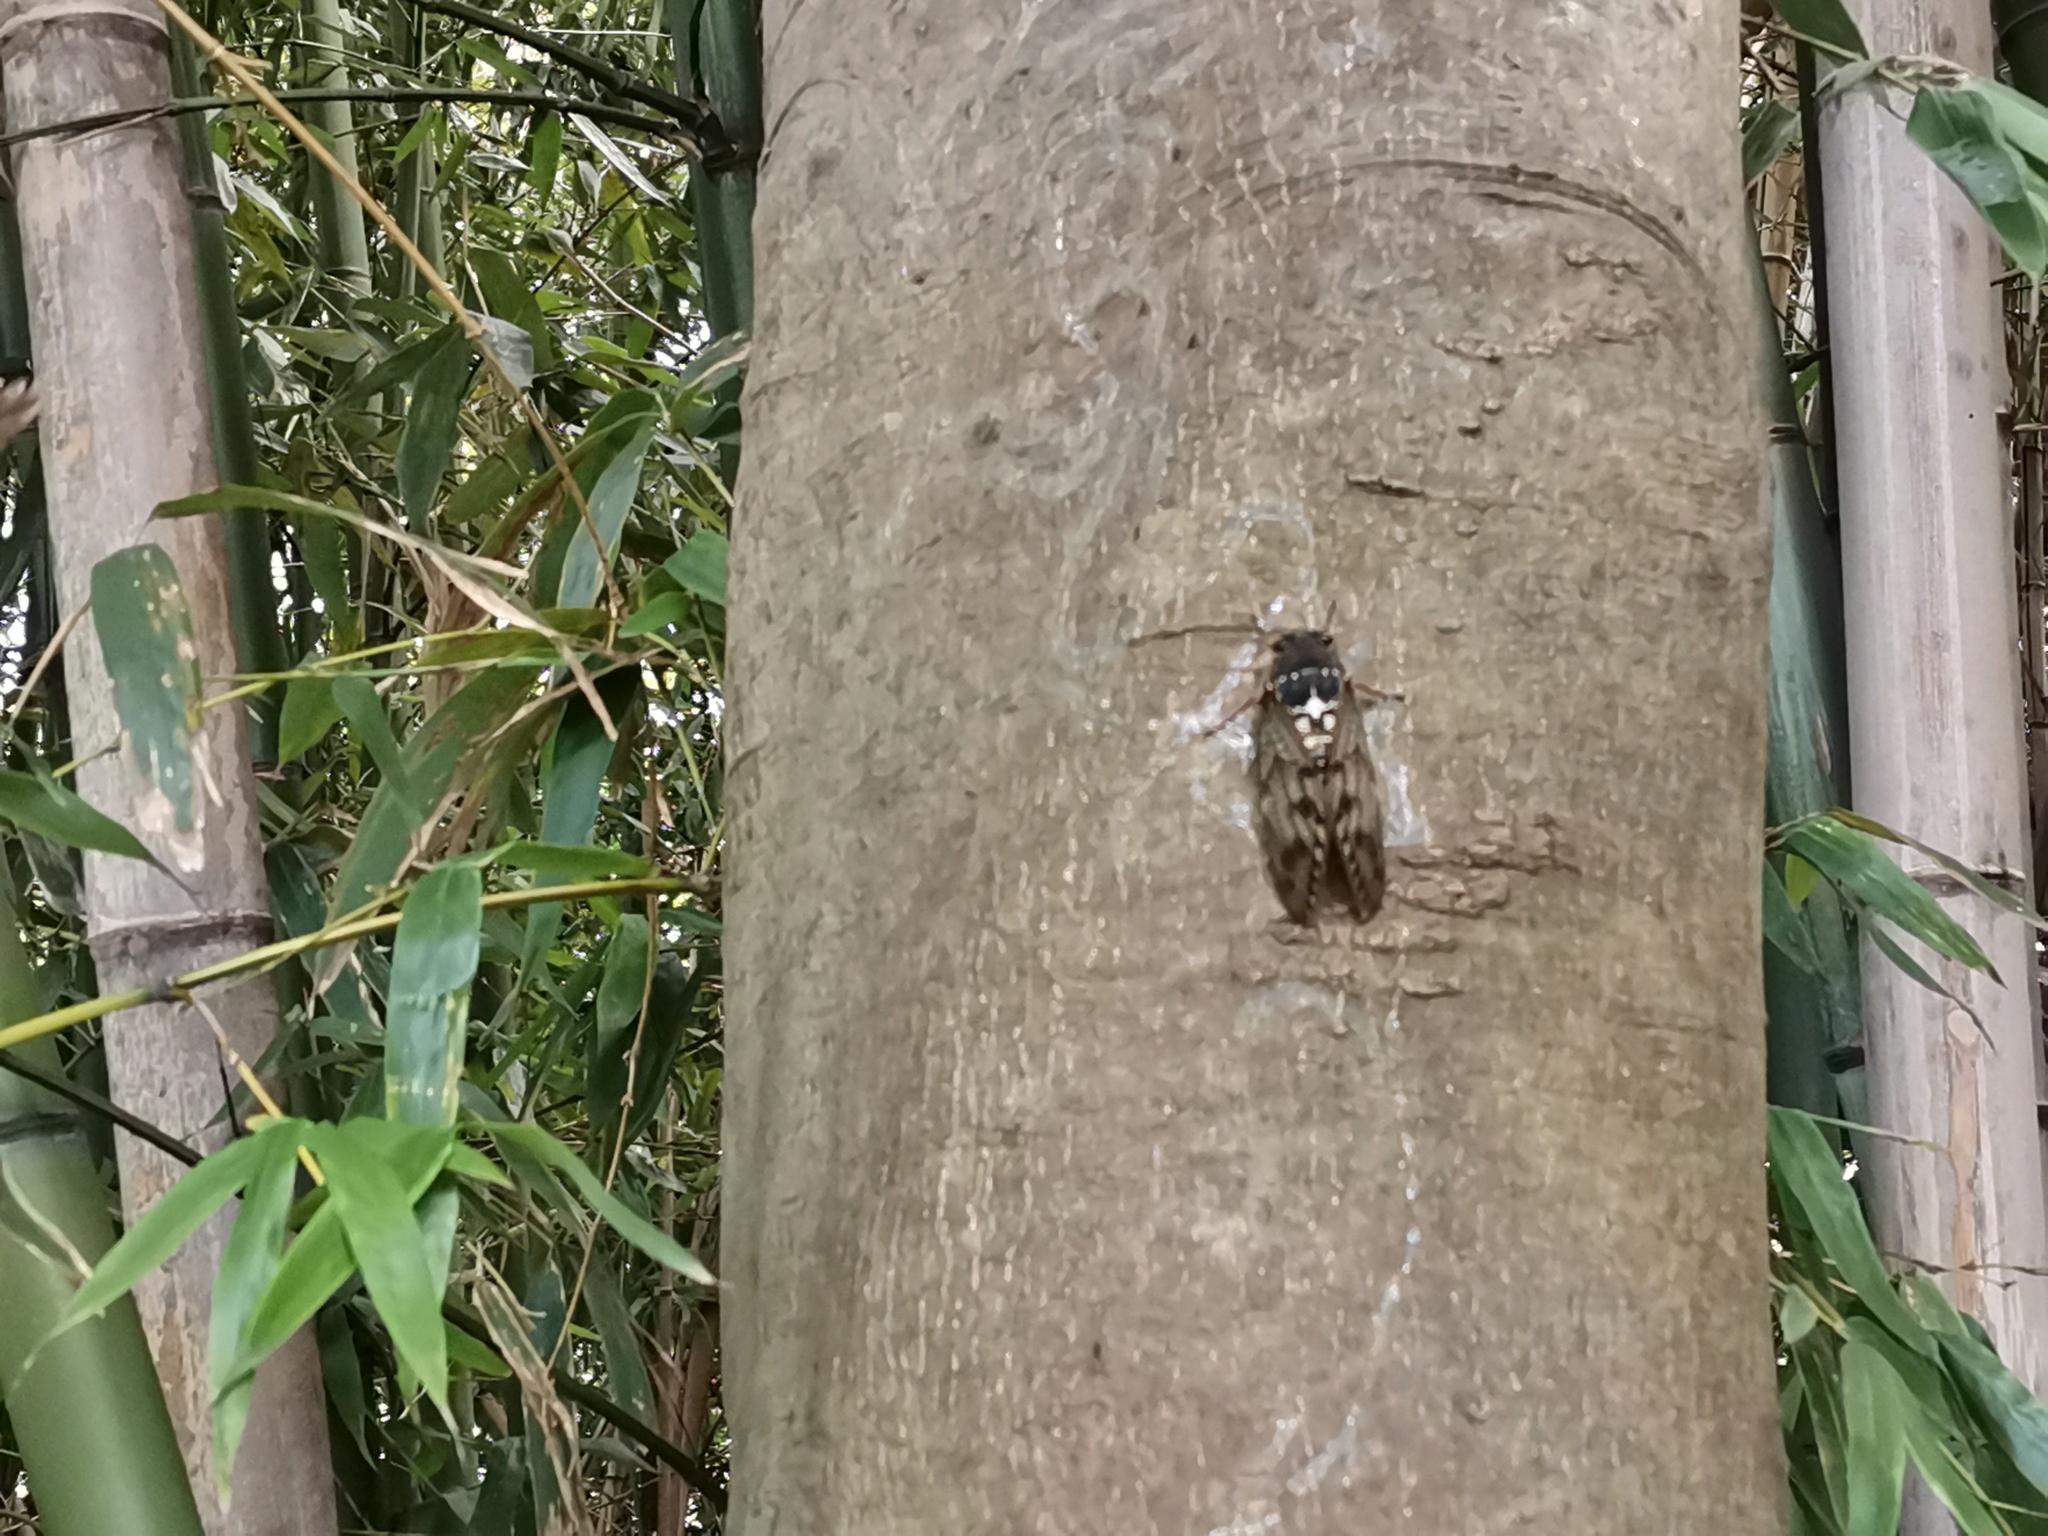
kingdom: Animalia
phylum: Arthropoda
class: Insecta
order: Hemiptera
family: Cicadidae
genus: Graptopsaltria
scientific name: Graptopsaltria nigrofuscata
